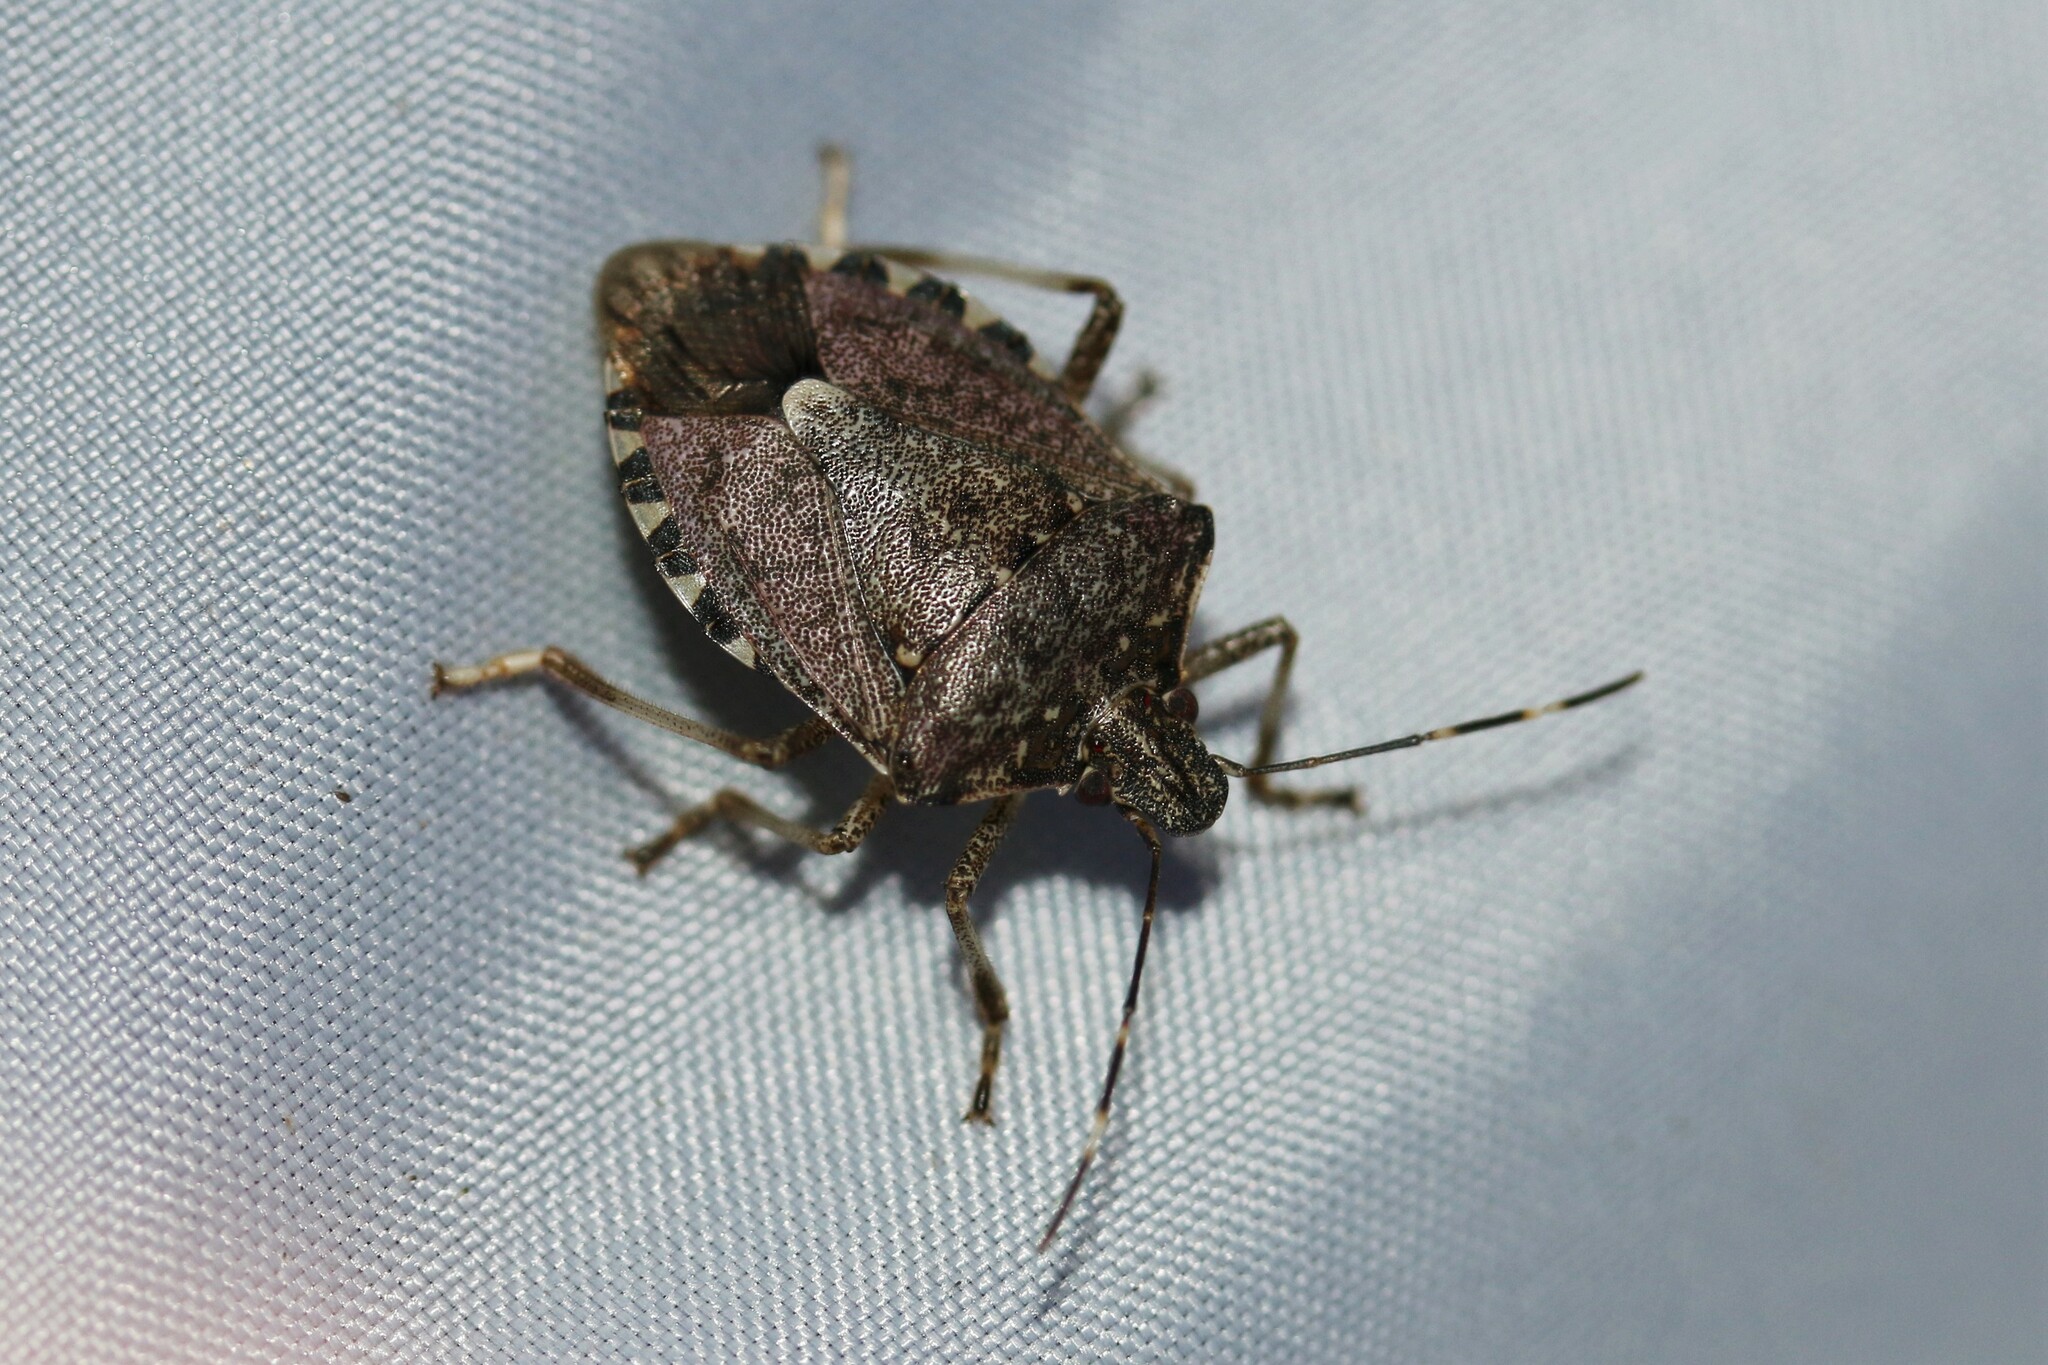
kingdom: Animalia
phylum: Arthropoda
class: Insecta
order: Hemiptera
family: Pentatomidae
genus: Halyomorpha
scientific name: Halyomorpha halys
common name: Brown marmorated stink bug
